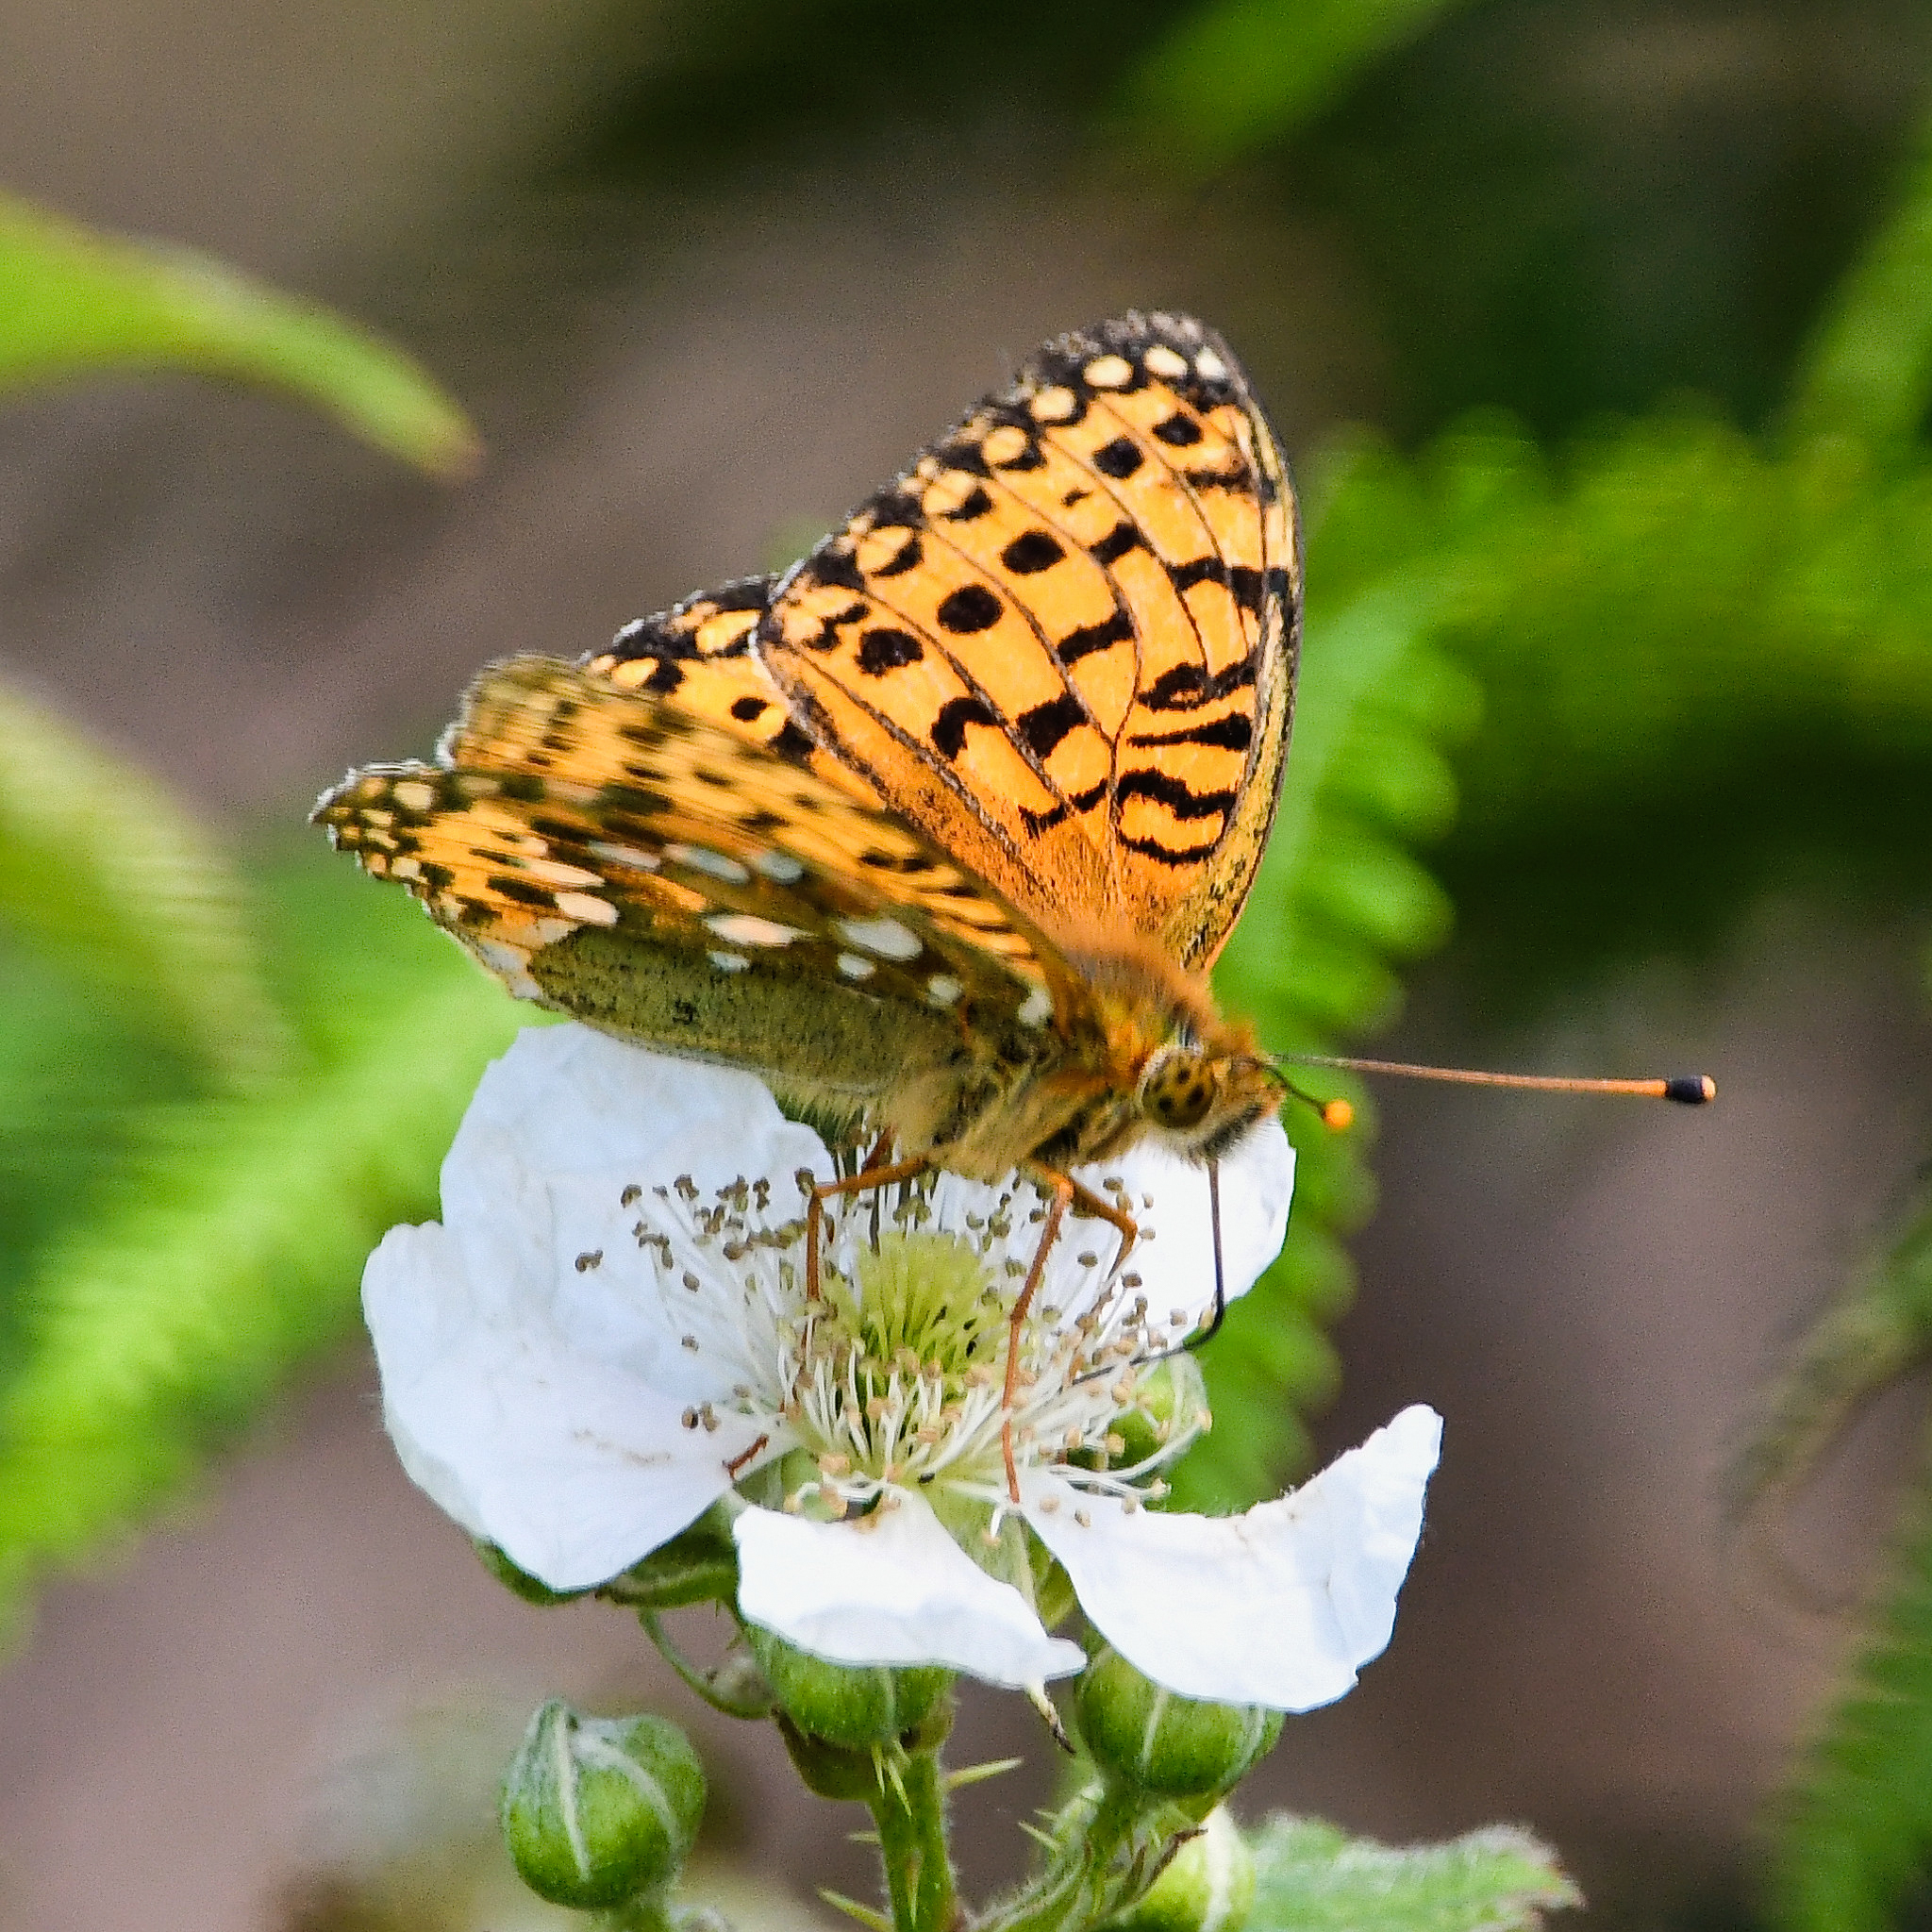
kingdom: Animalia
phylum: Arthropoda
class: Insecta
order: Lepidoptera
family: Nymphalidae
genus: Speyeria
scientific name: Speyeria aglaja
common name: Dark green fritillary
